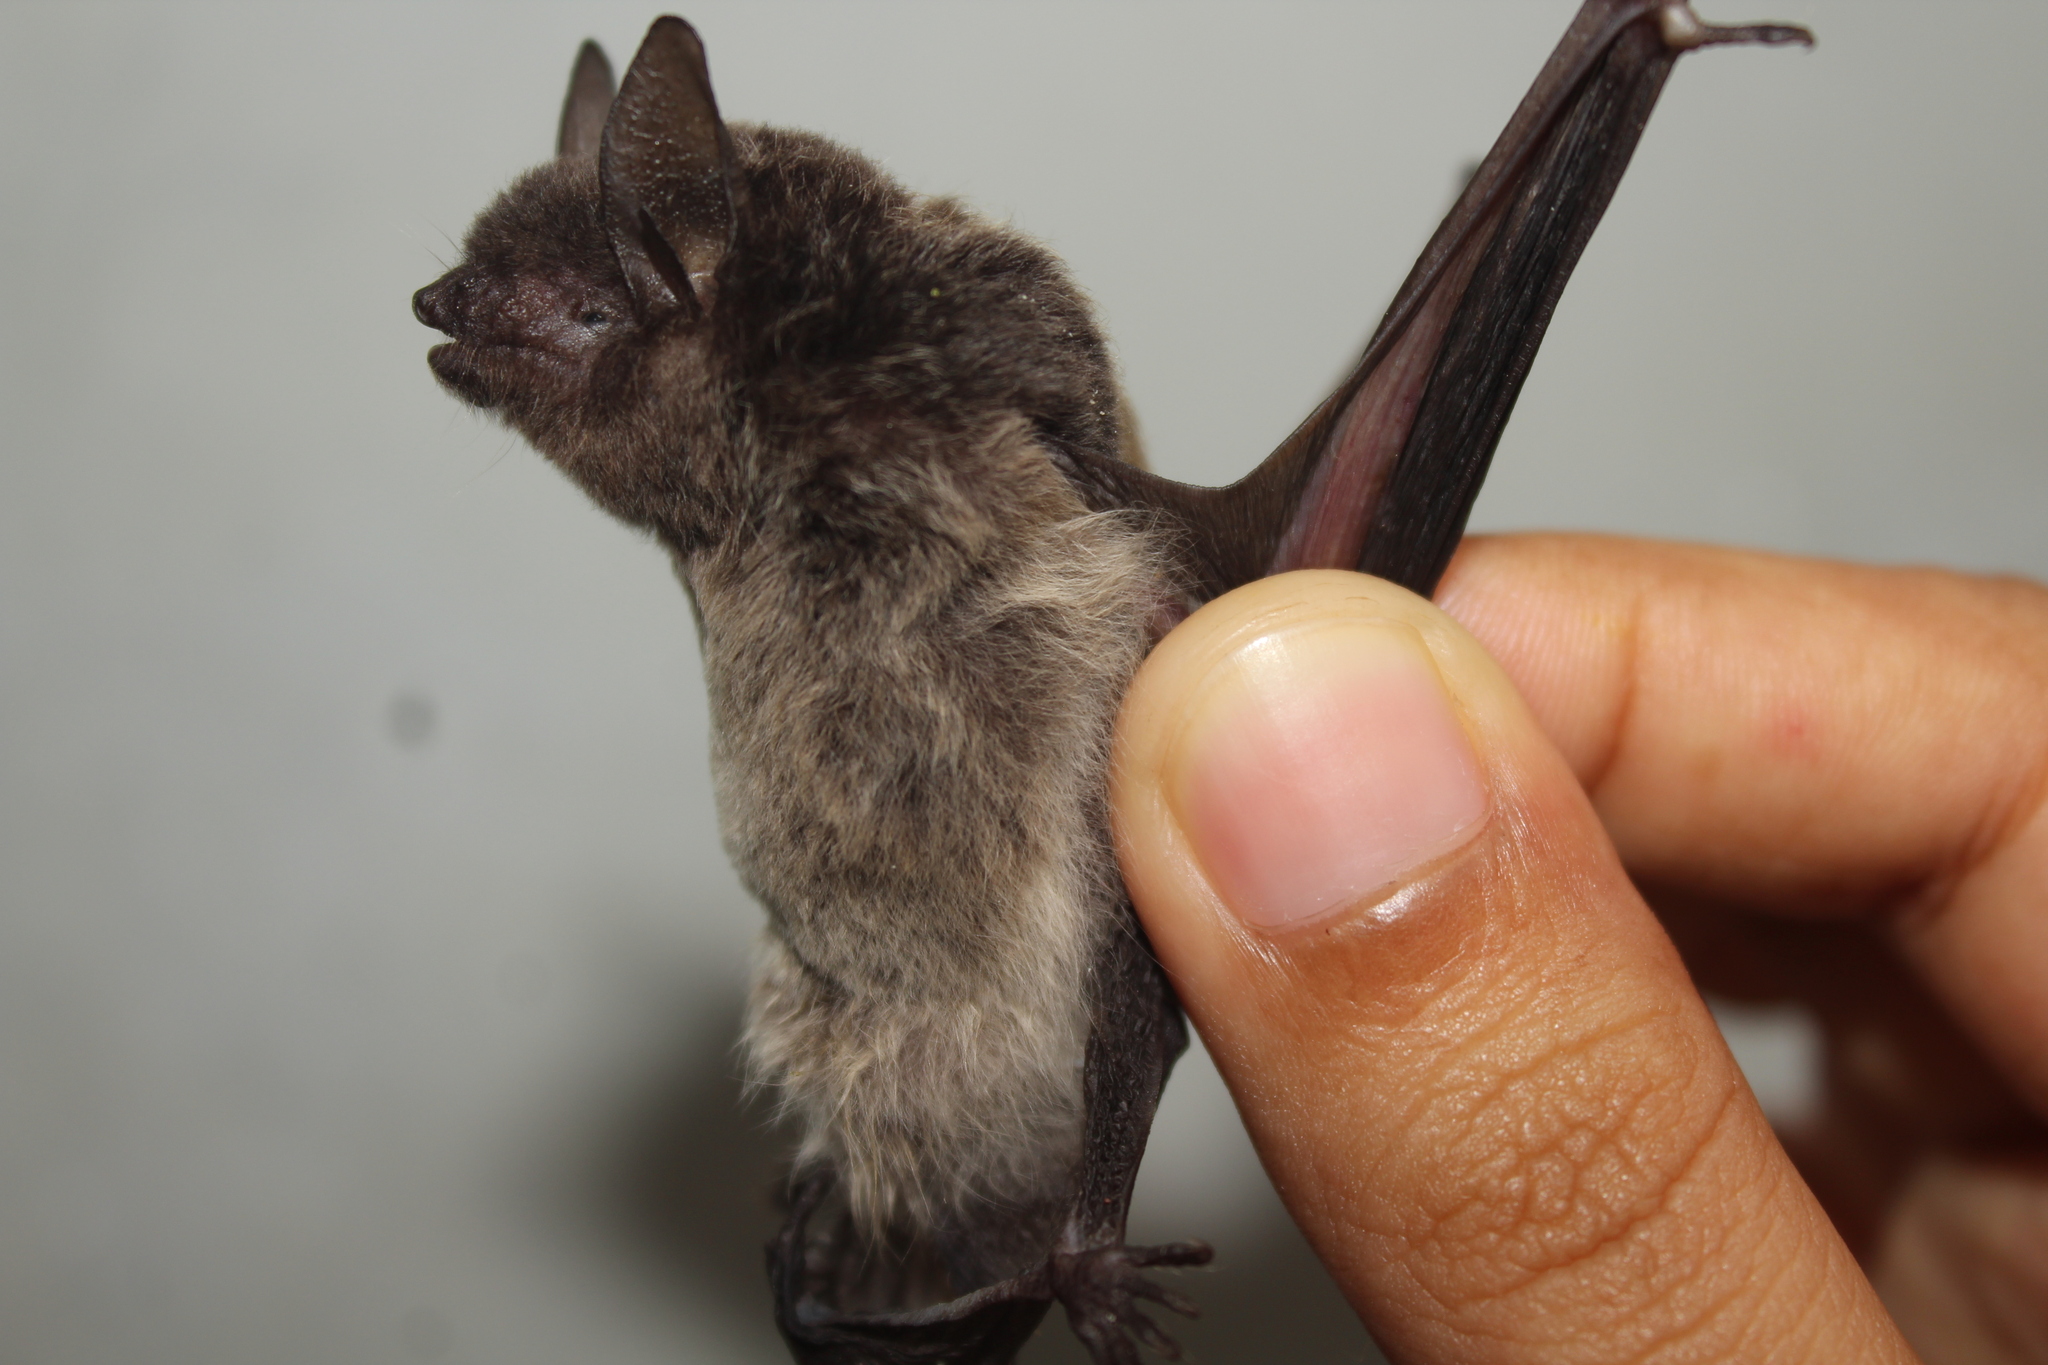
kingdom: Animalia
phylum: Chordata
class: Mammalia
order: Chiroptera
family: Vespertilionidae
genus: Myotis
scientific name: Myotis albescens
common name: Silver-tipped myotis
